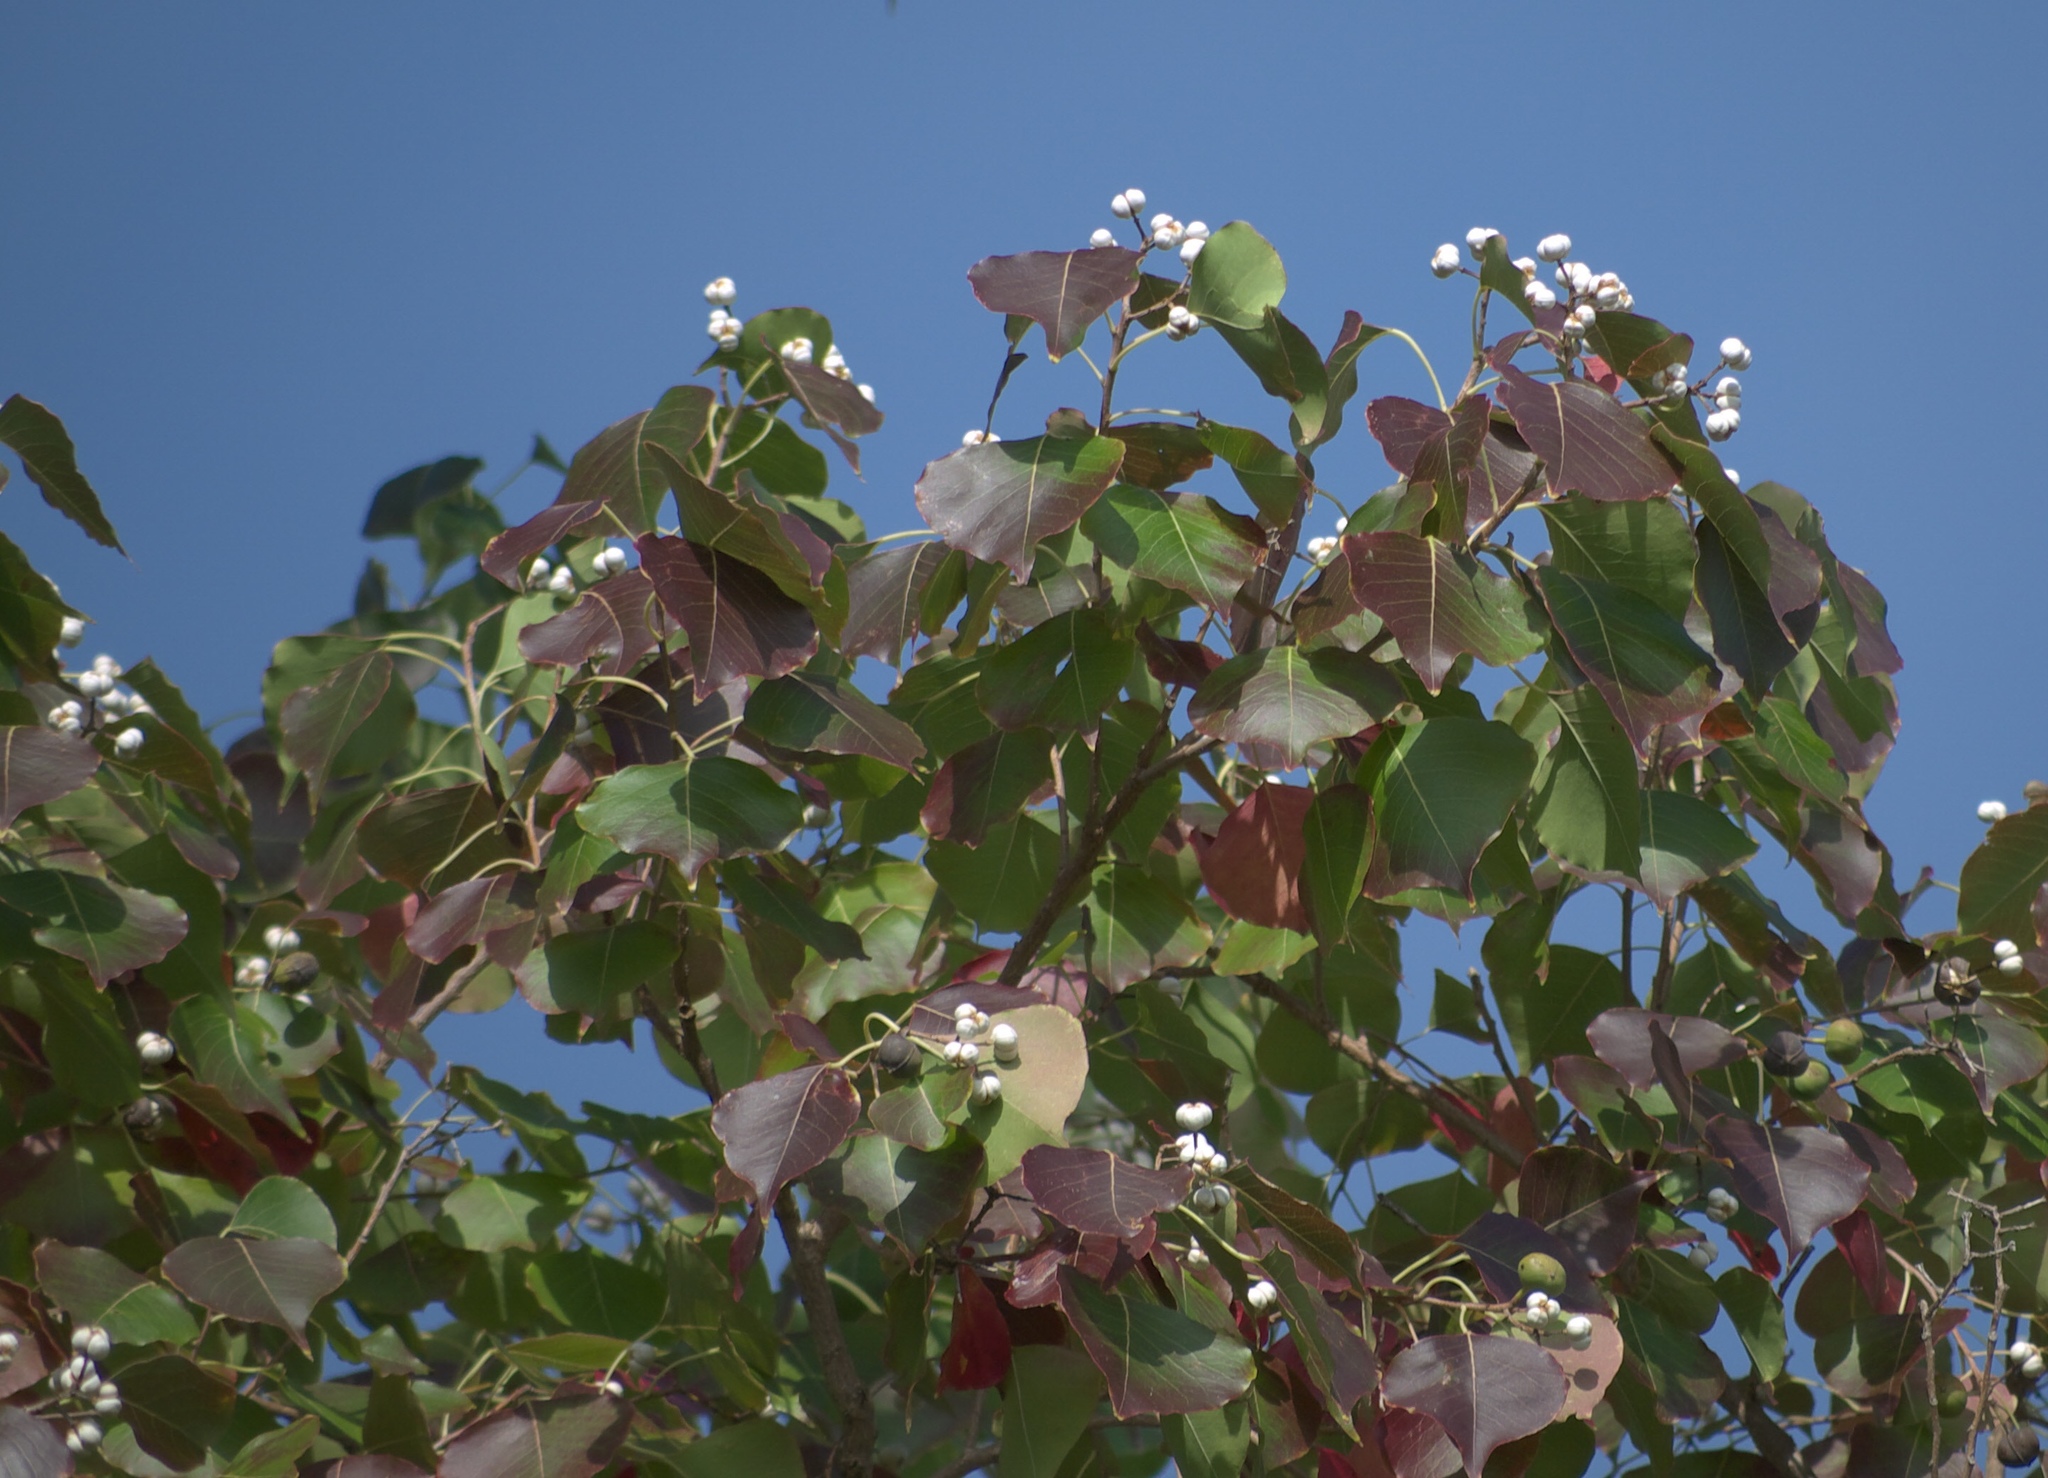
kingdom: Plantae
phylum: Tracheophyta
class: Magnoliopsida
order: Malpighiales
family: Euphorbiaceae
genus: Triadica
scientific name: Triadica sebifera
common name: Chinese tallow
